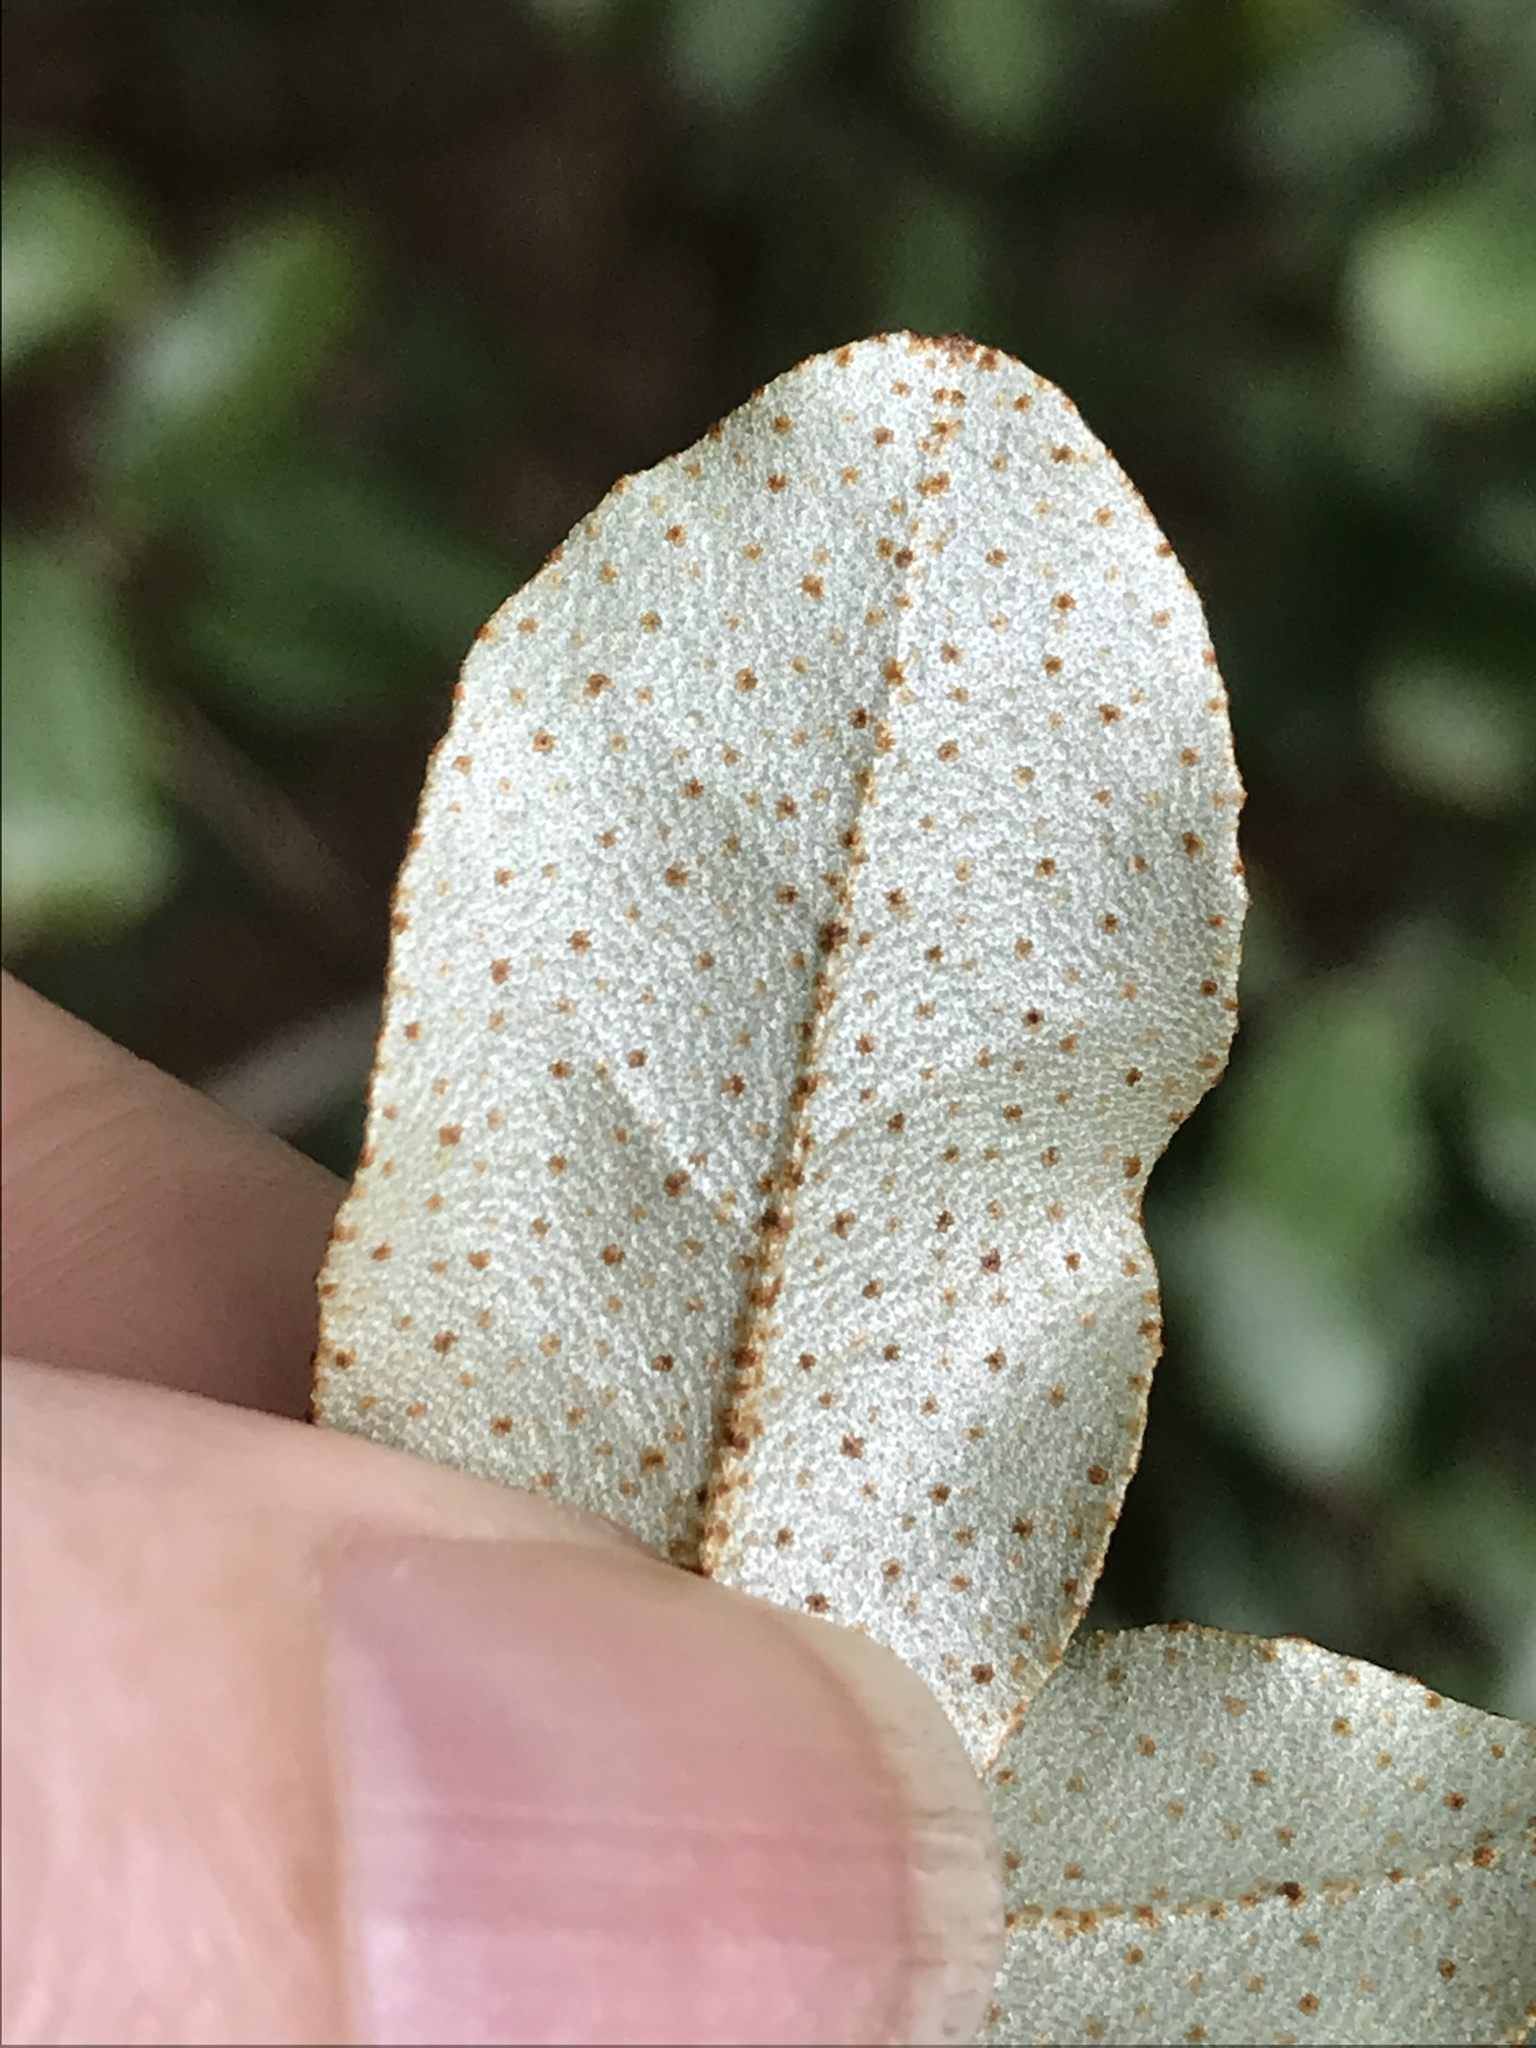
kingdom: Plantae
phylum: Tracheophyta
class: Magnoliopsida
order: Rosales
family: Elaeagnaceae
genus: Elaeagnus
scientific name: Elaeagnus pungens
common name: Spiny oleaster
